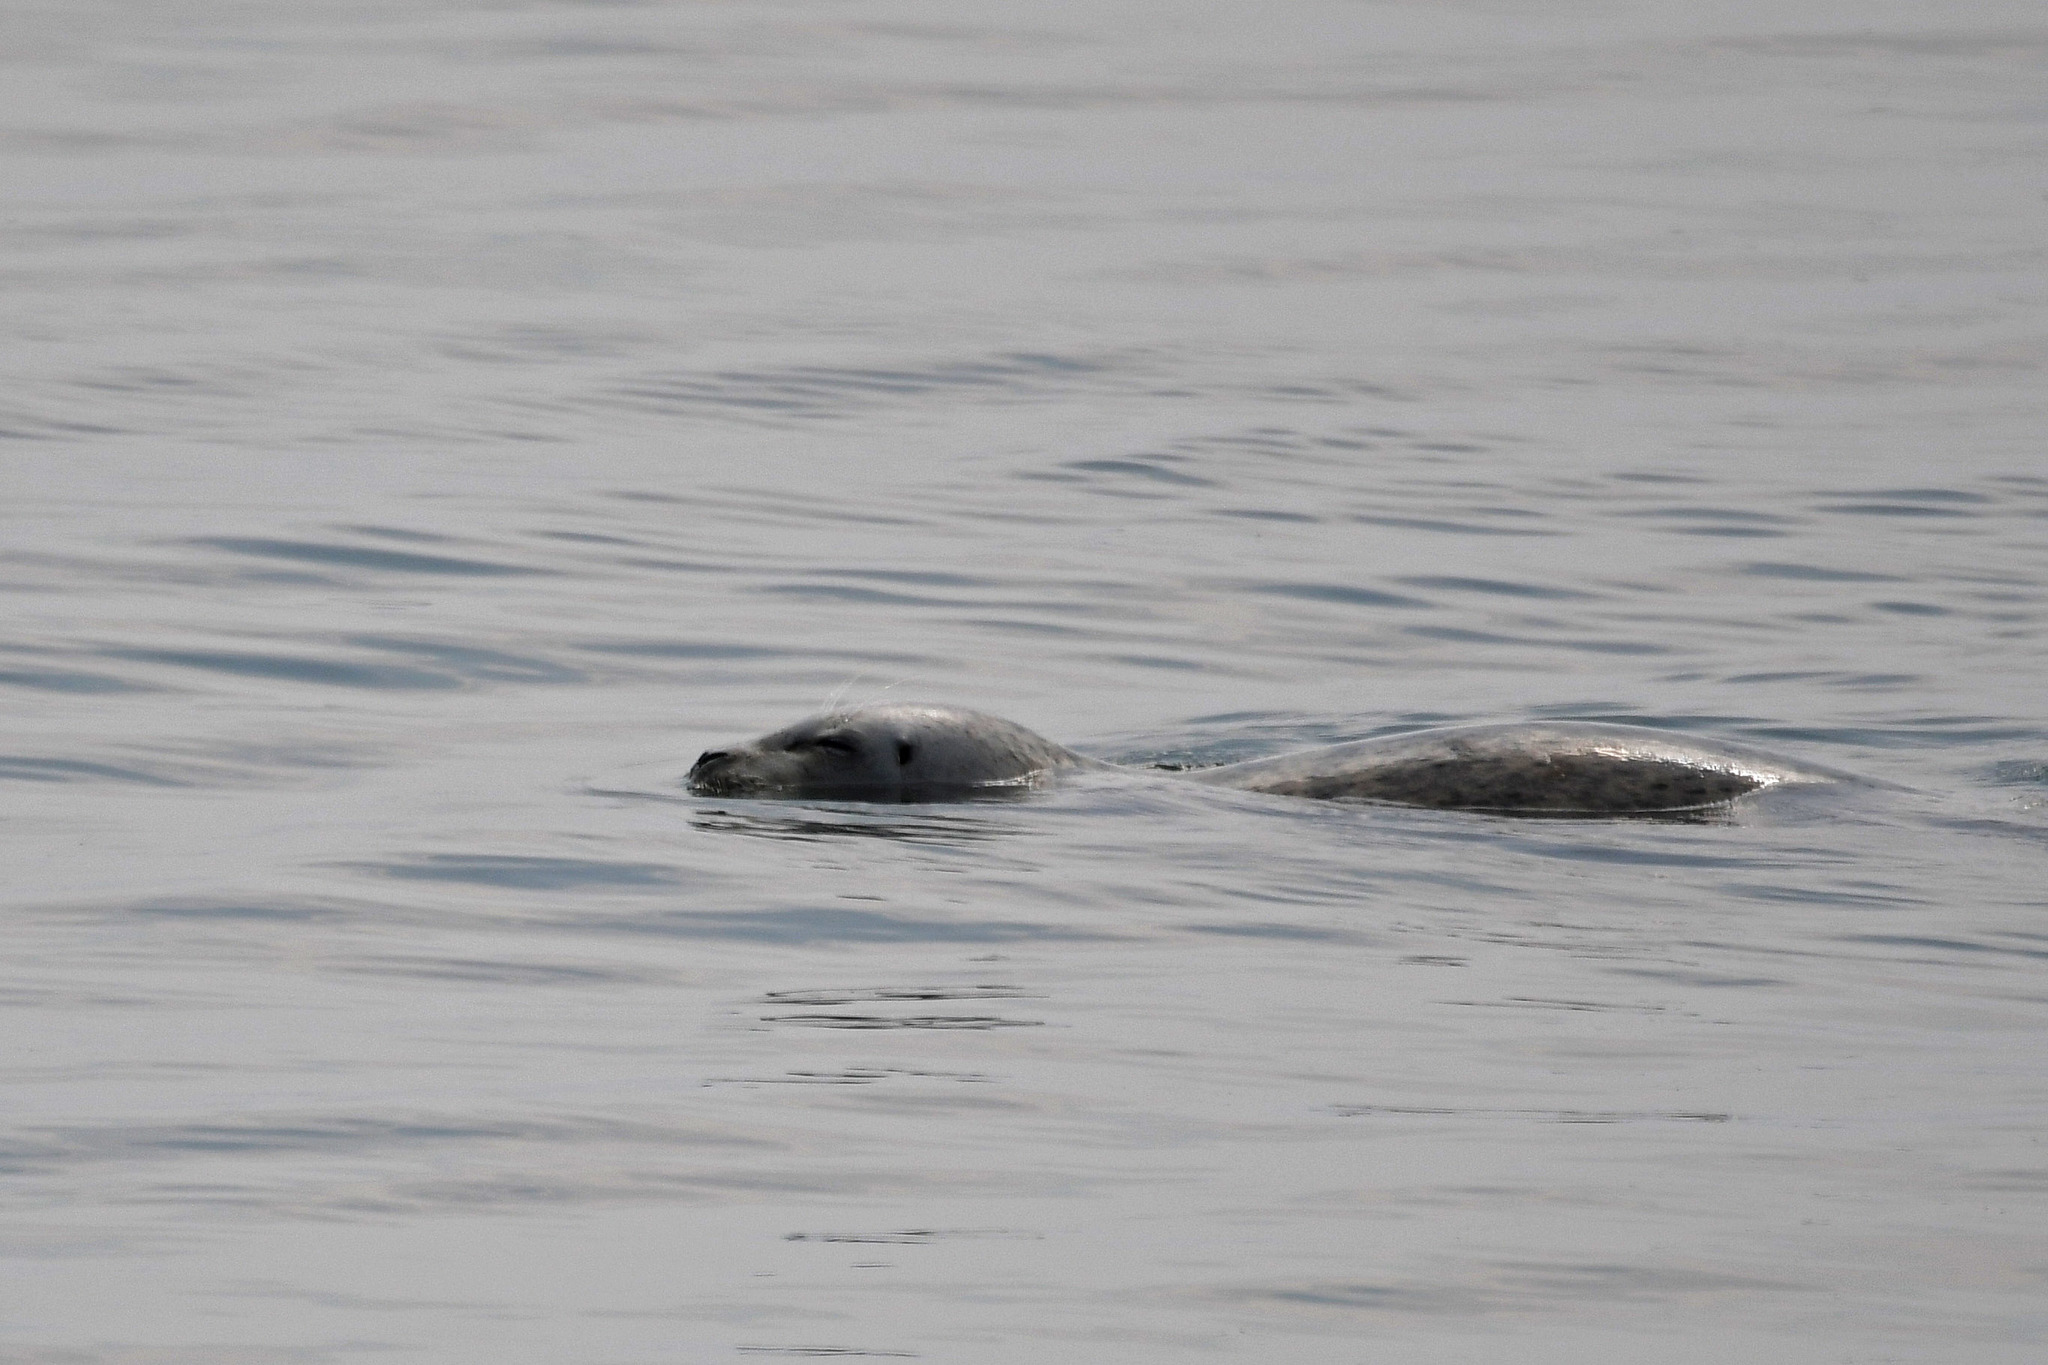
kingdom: Animalia
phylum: Chordata
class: Mammalia
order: Carnivora
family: Phocidae
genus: Phoca
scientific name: Phoca vitulina
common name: Harbor seal
